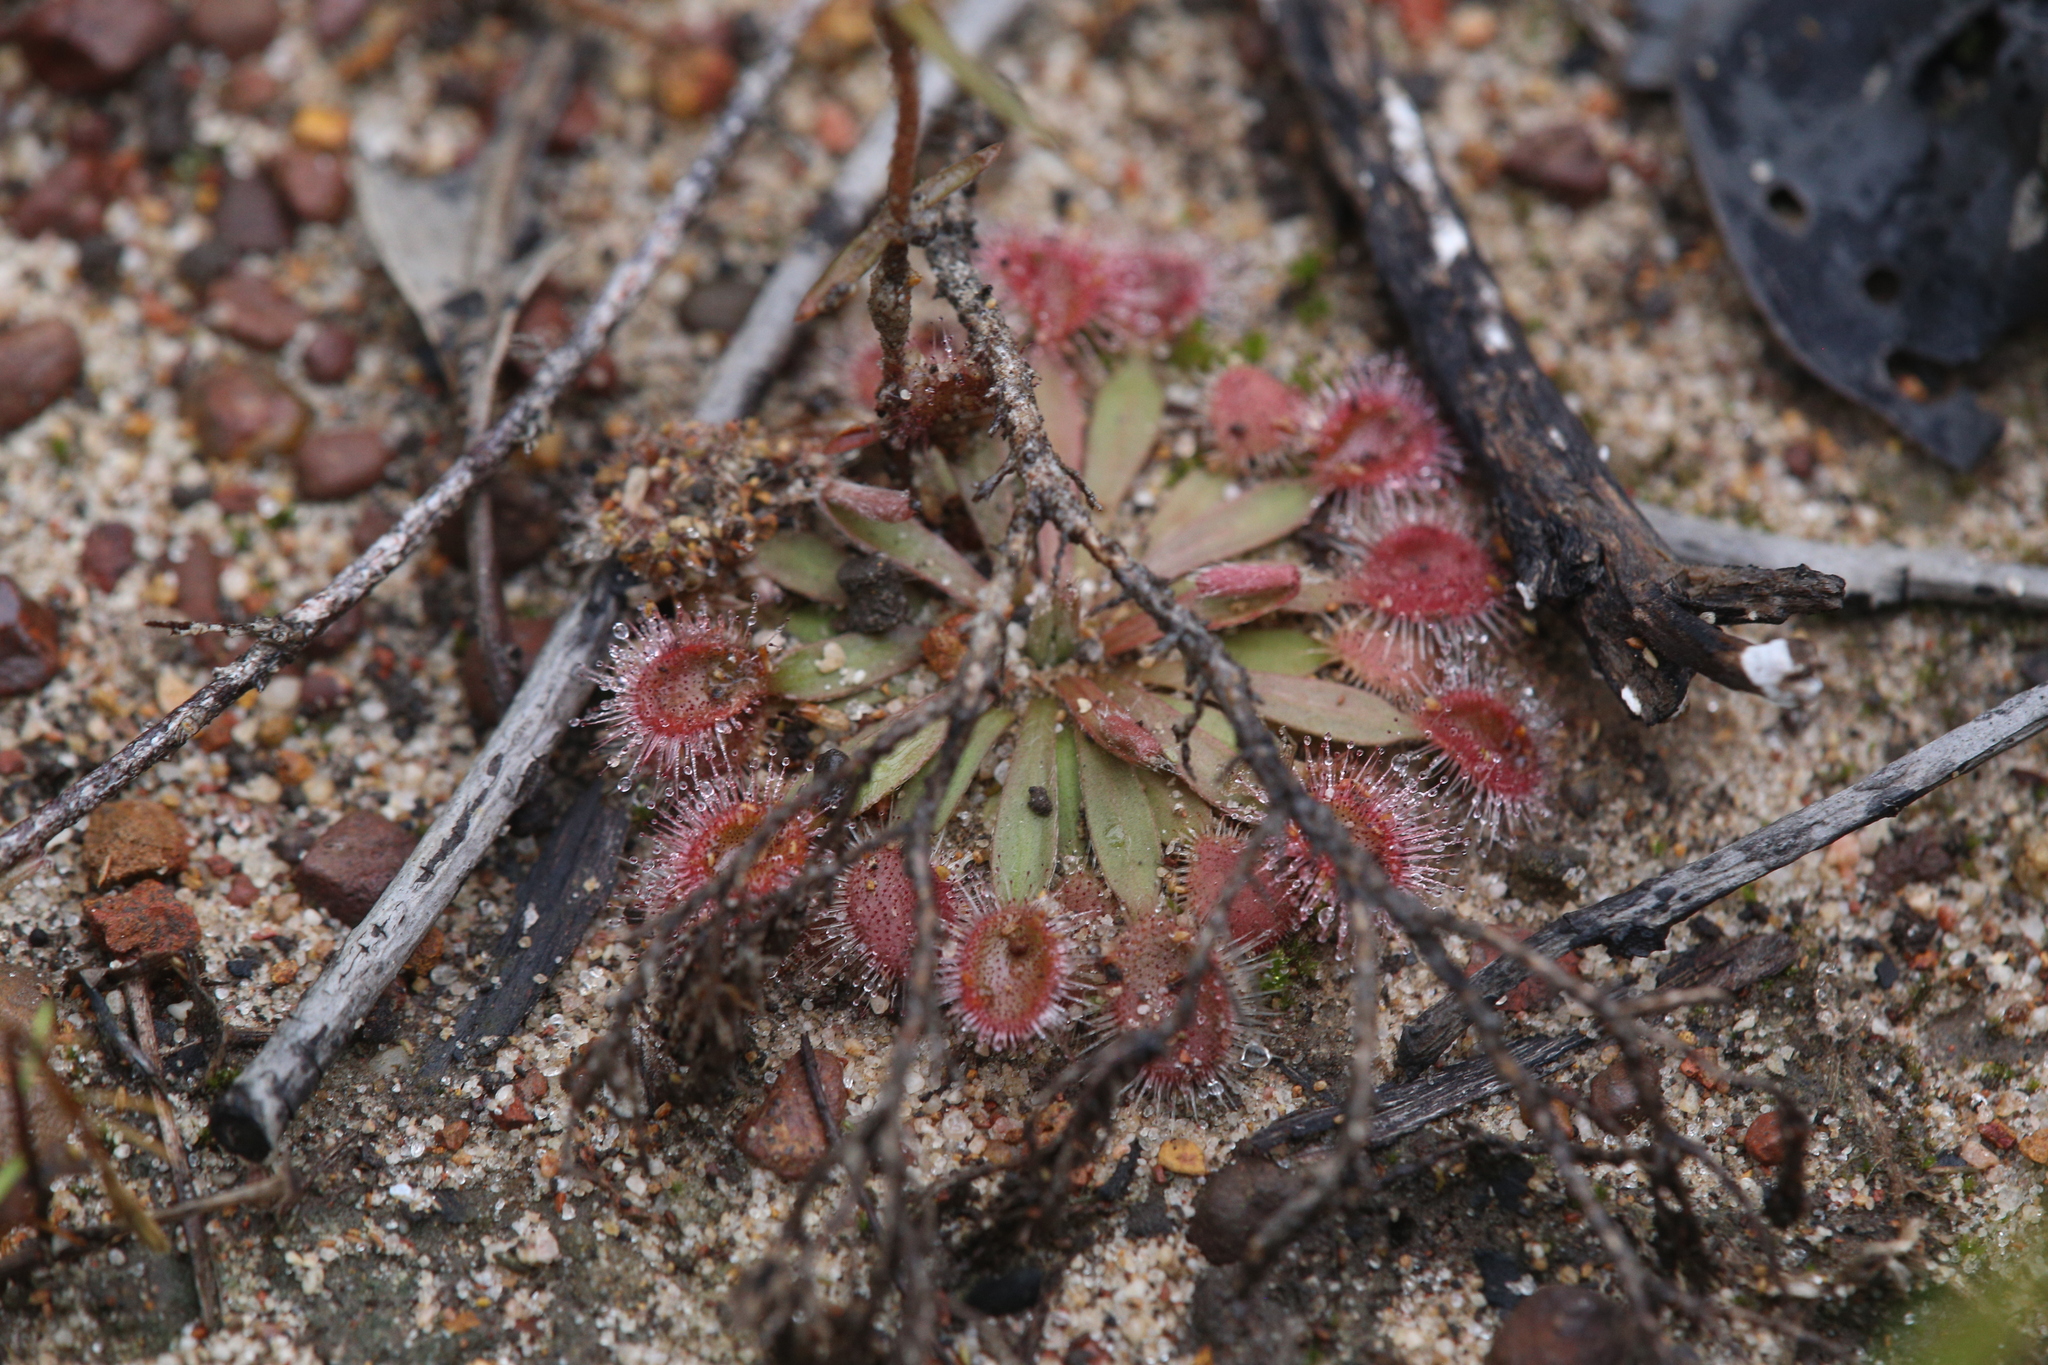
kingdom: Plantae
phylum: Tracheophyta
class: Magnoliopsida
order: Caryophyllales
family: Droseraceae
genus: Drosera
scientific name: Drosera brevicornis
